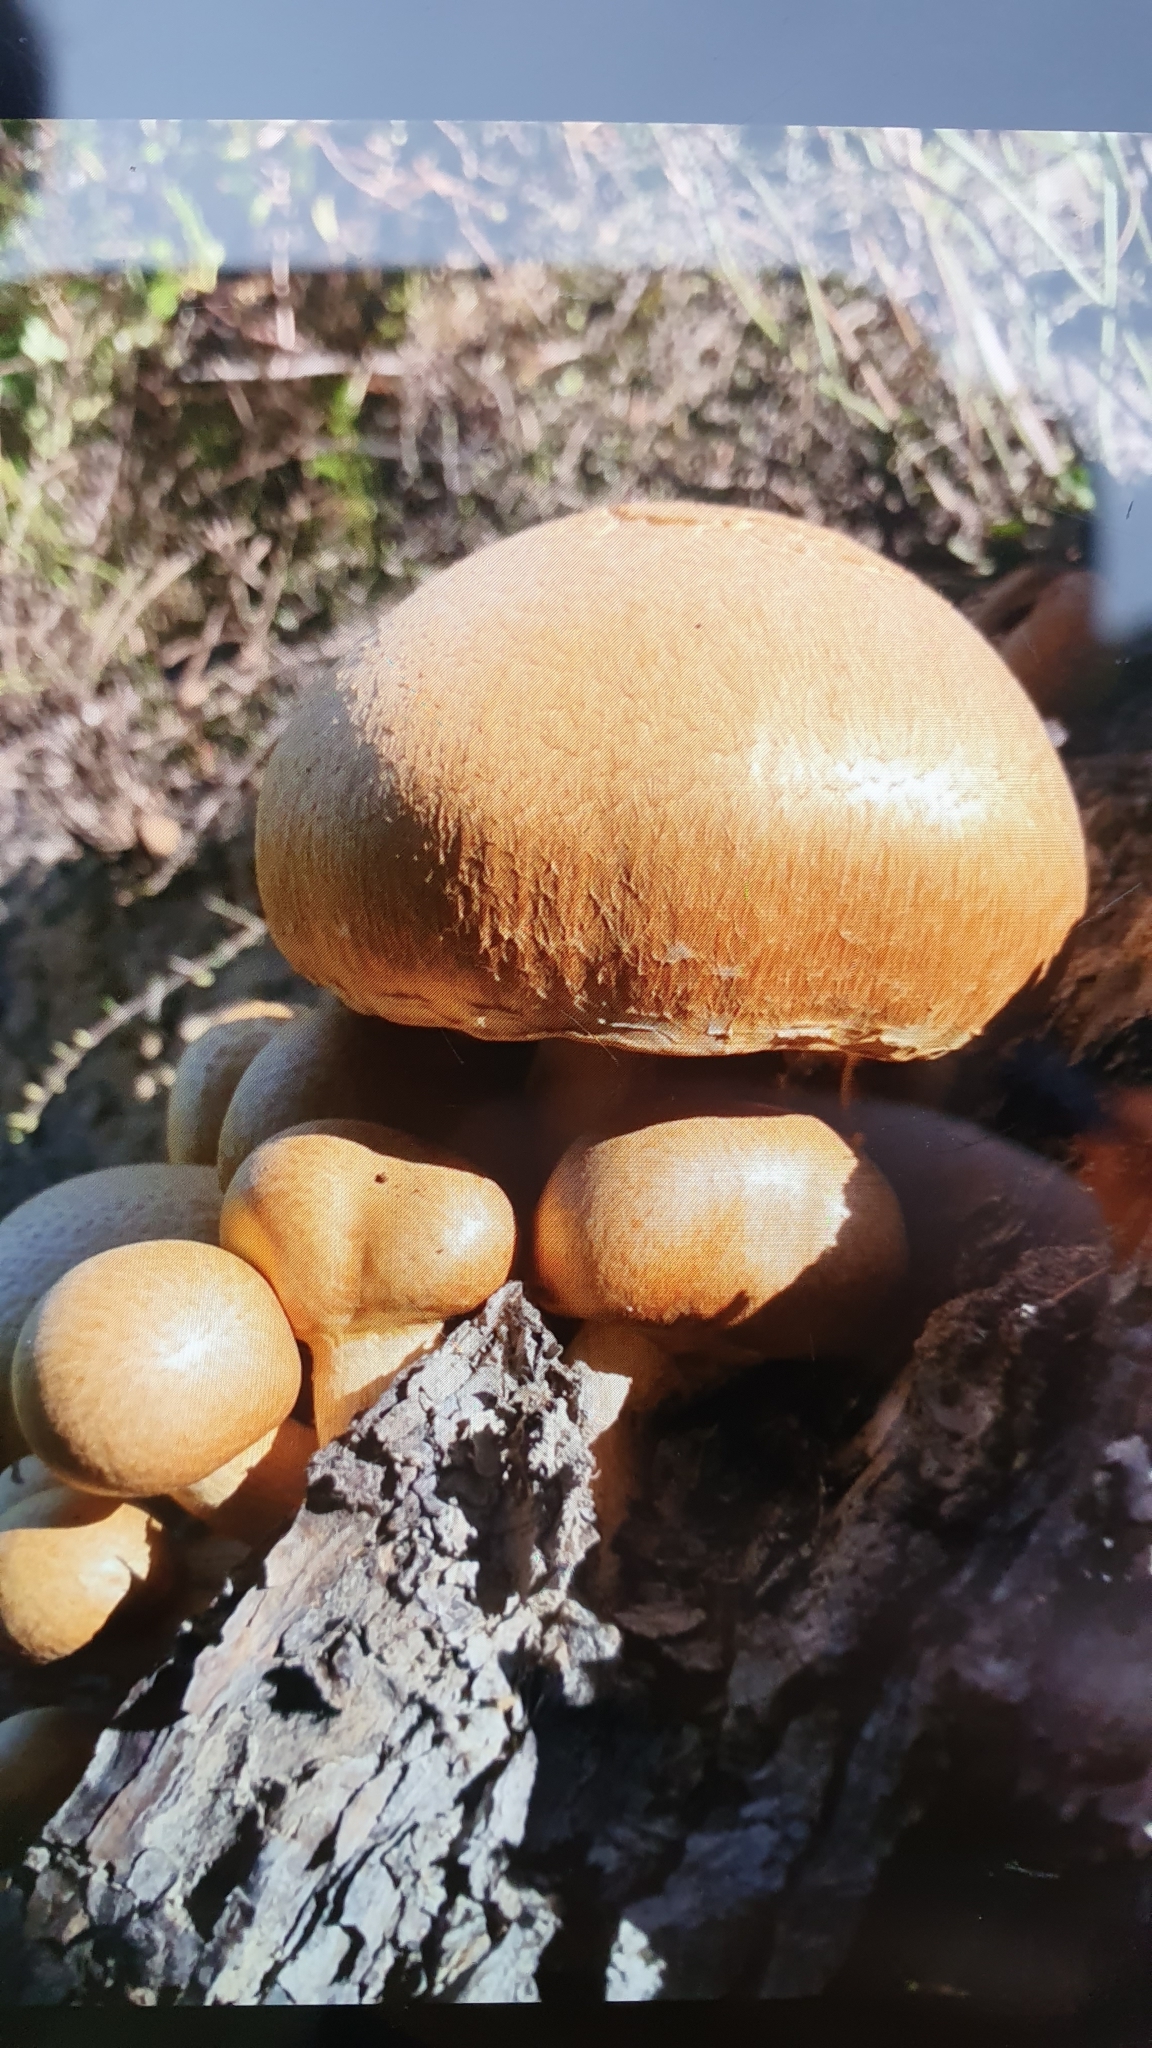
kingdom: Fungi
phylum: Basidiomycota
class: Agaricomycetes
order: Agaricales
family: Hymenogastraceae
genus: Gymnopilus
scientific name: Gymnopilus junonius
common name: Spectacular rustgill
